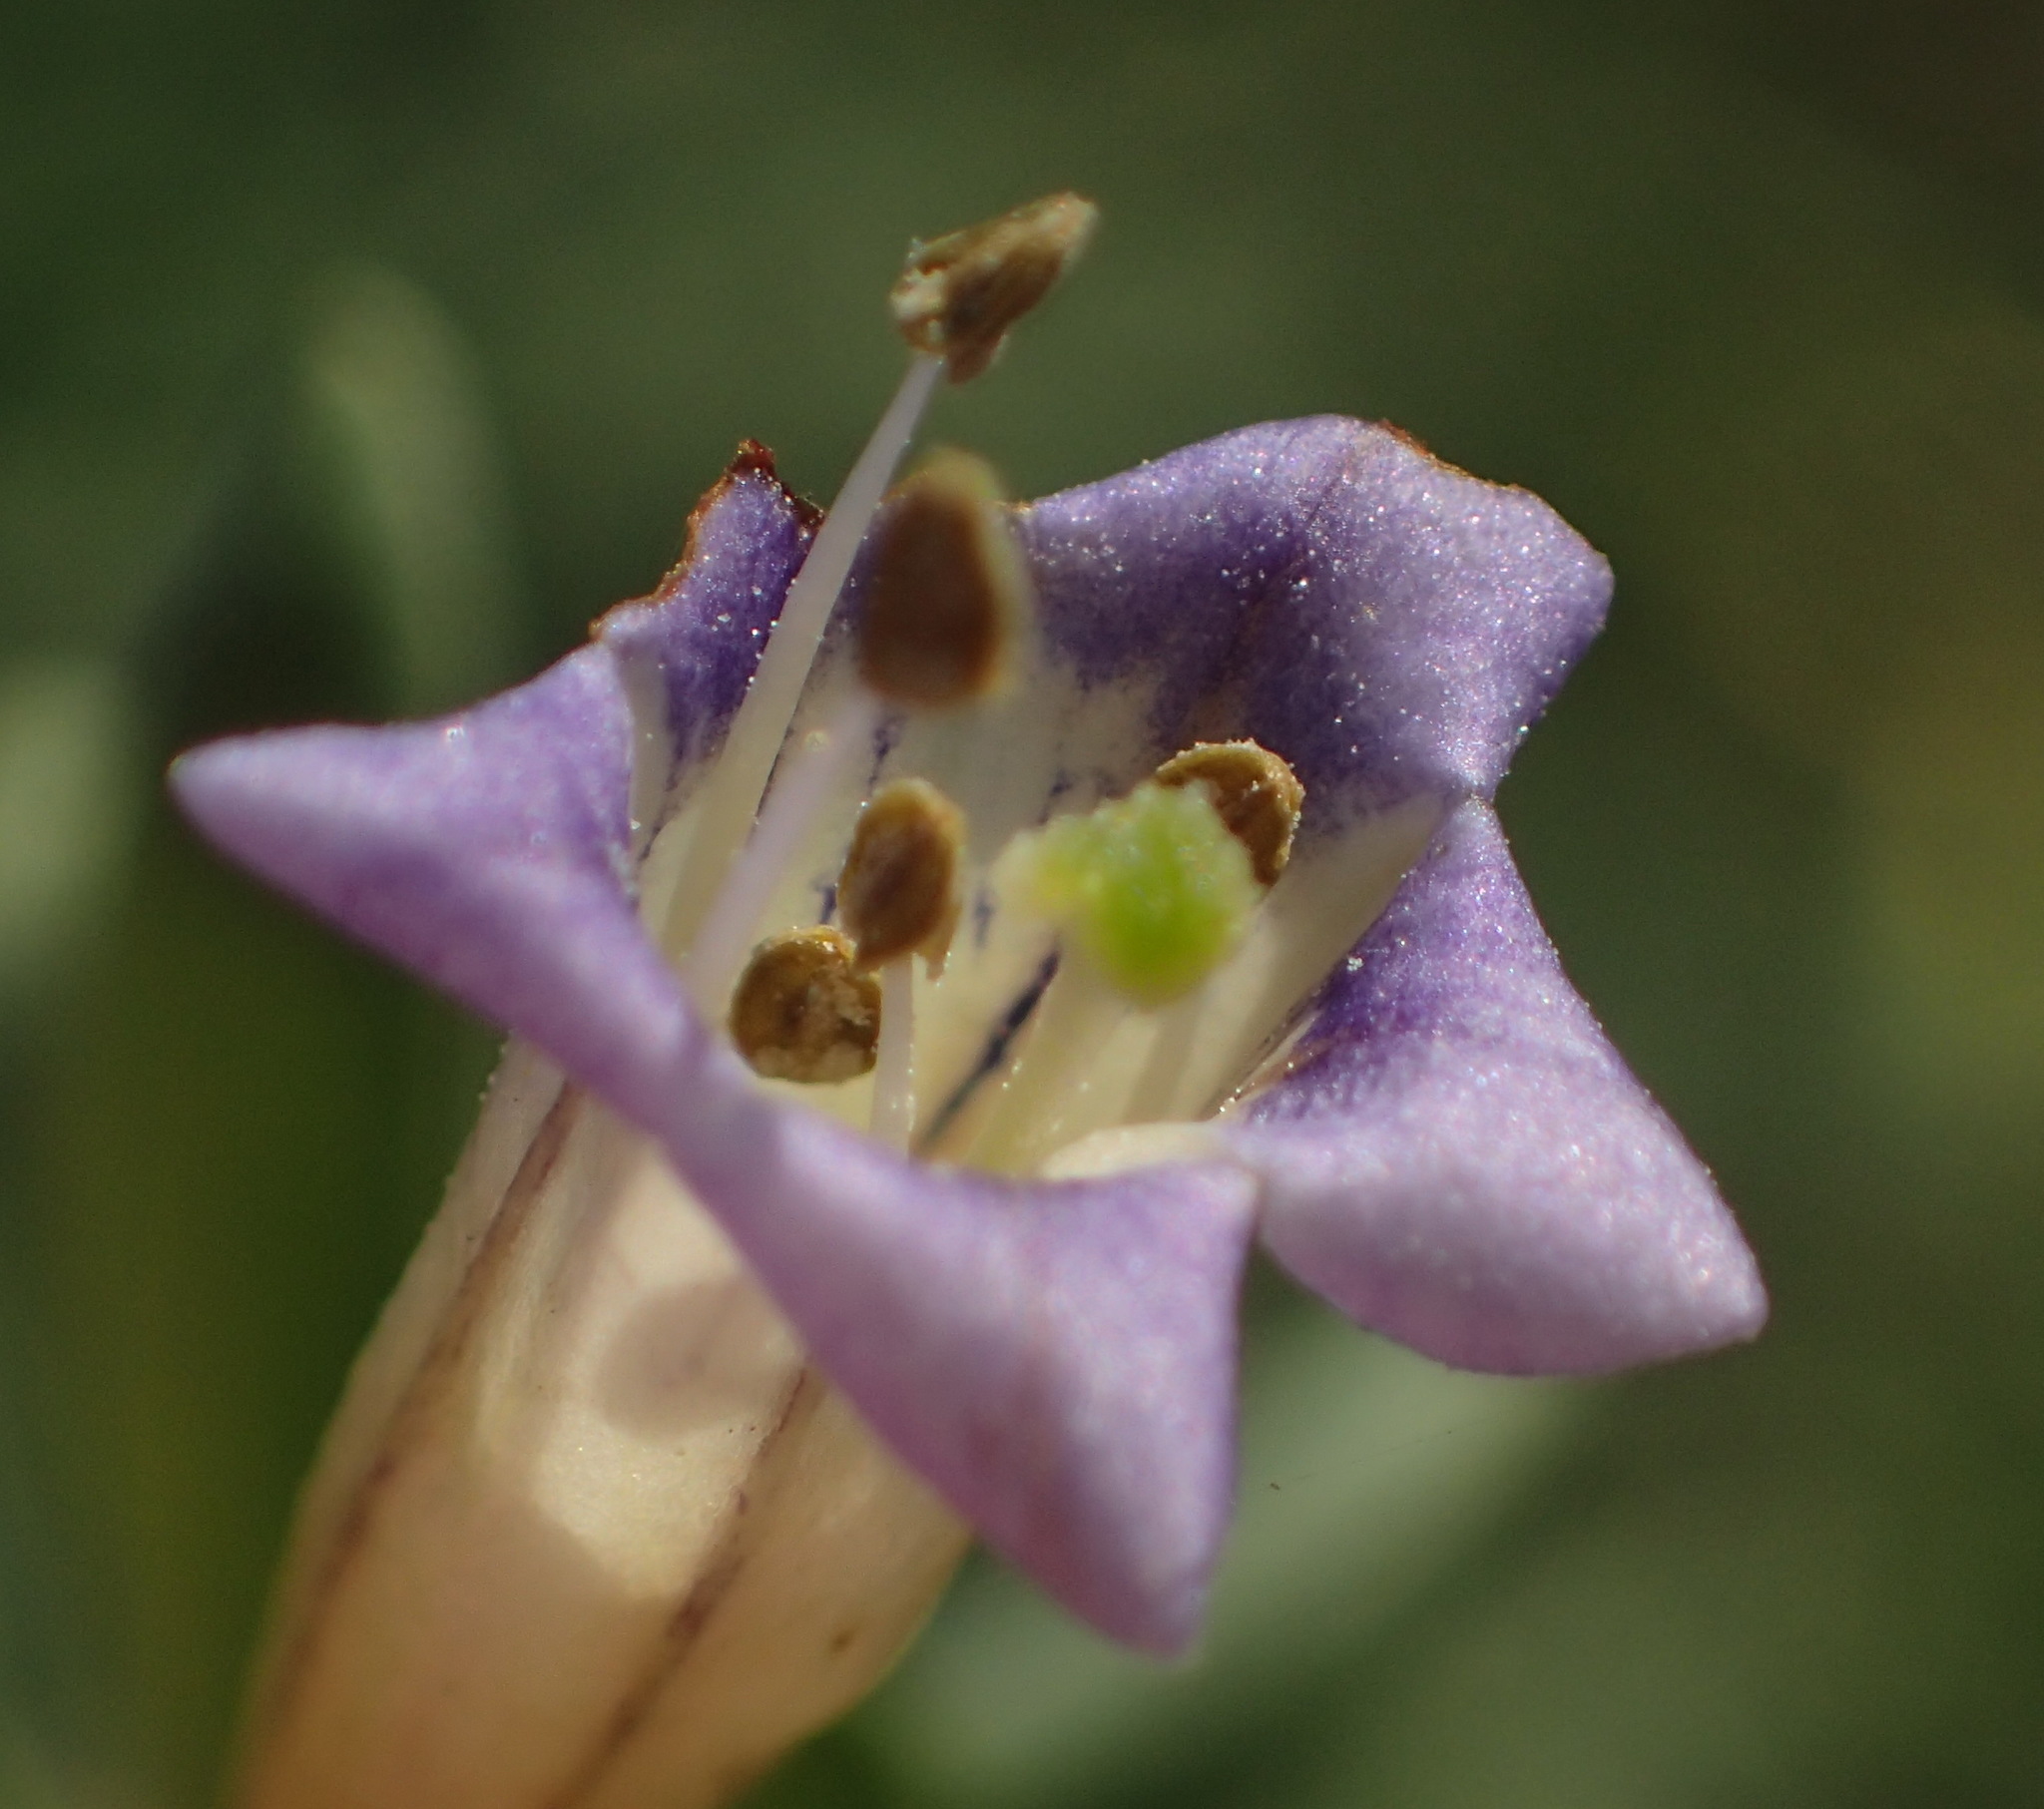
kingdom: Plantae
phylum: Tracheophyta
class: Magnoliopsida
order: Solanales
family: Solanaceae
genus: Lycium
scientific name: Lycium oxycarpum
